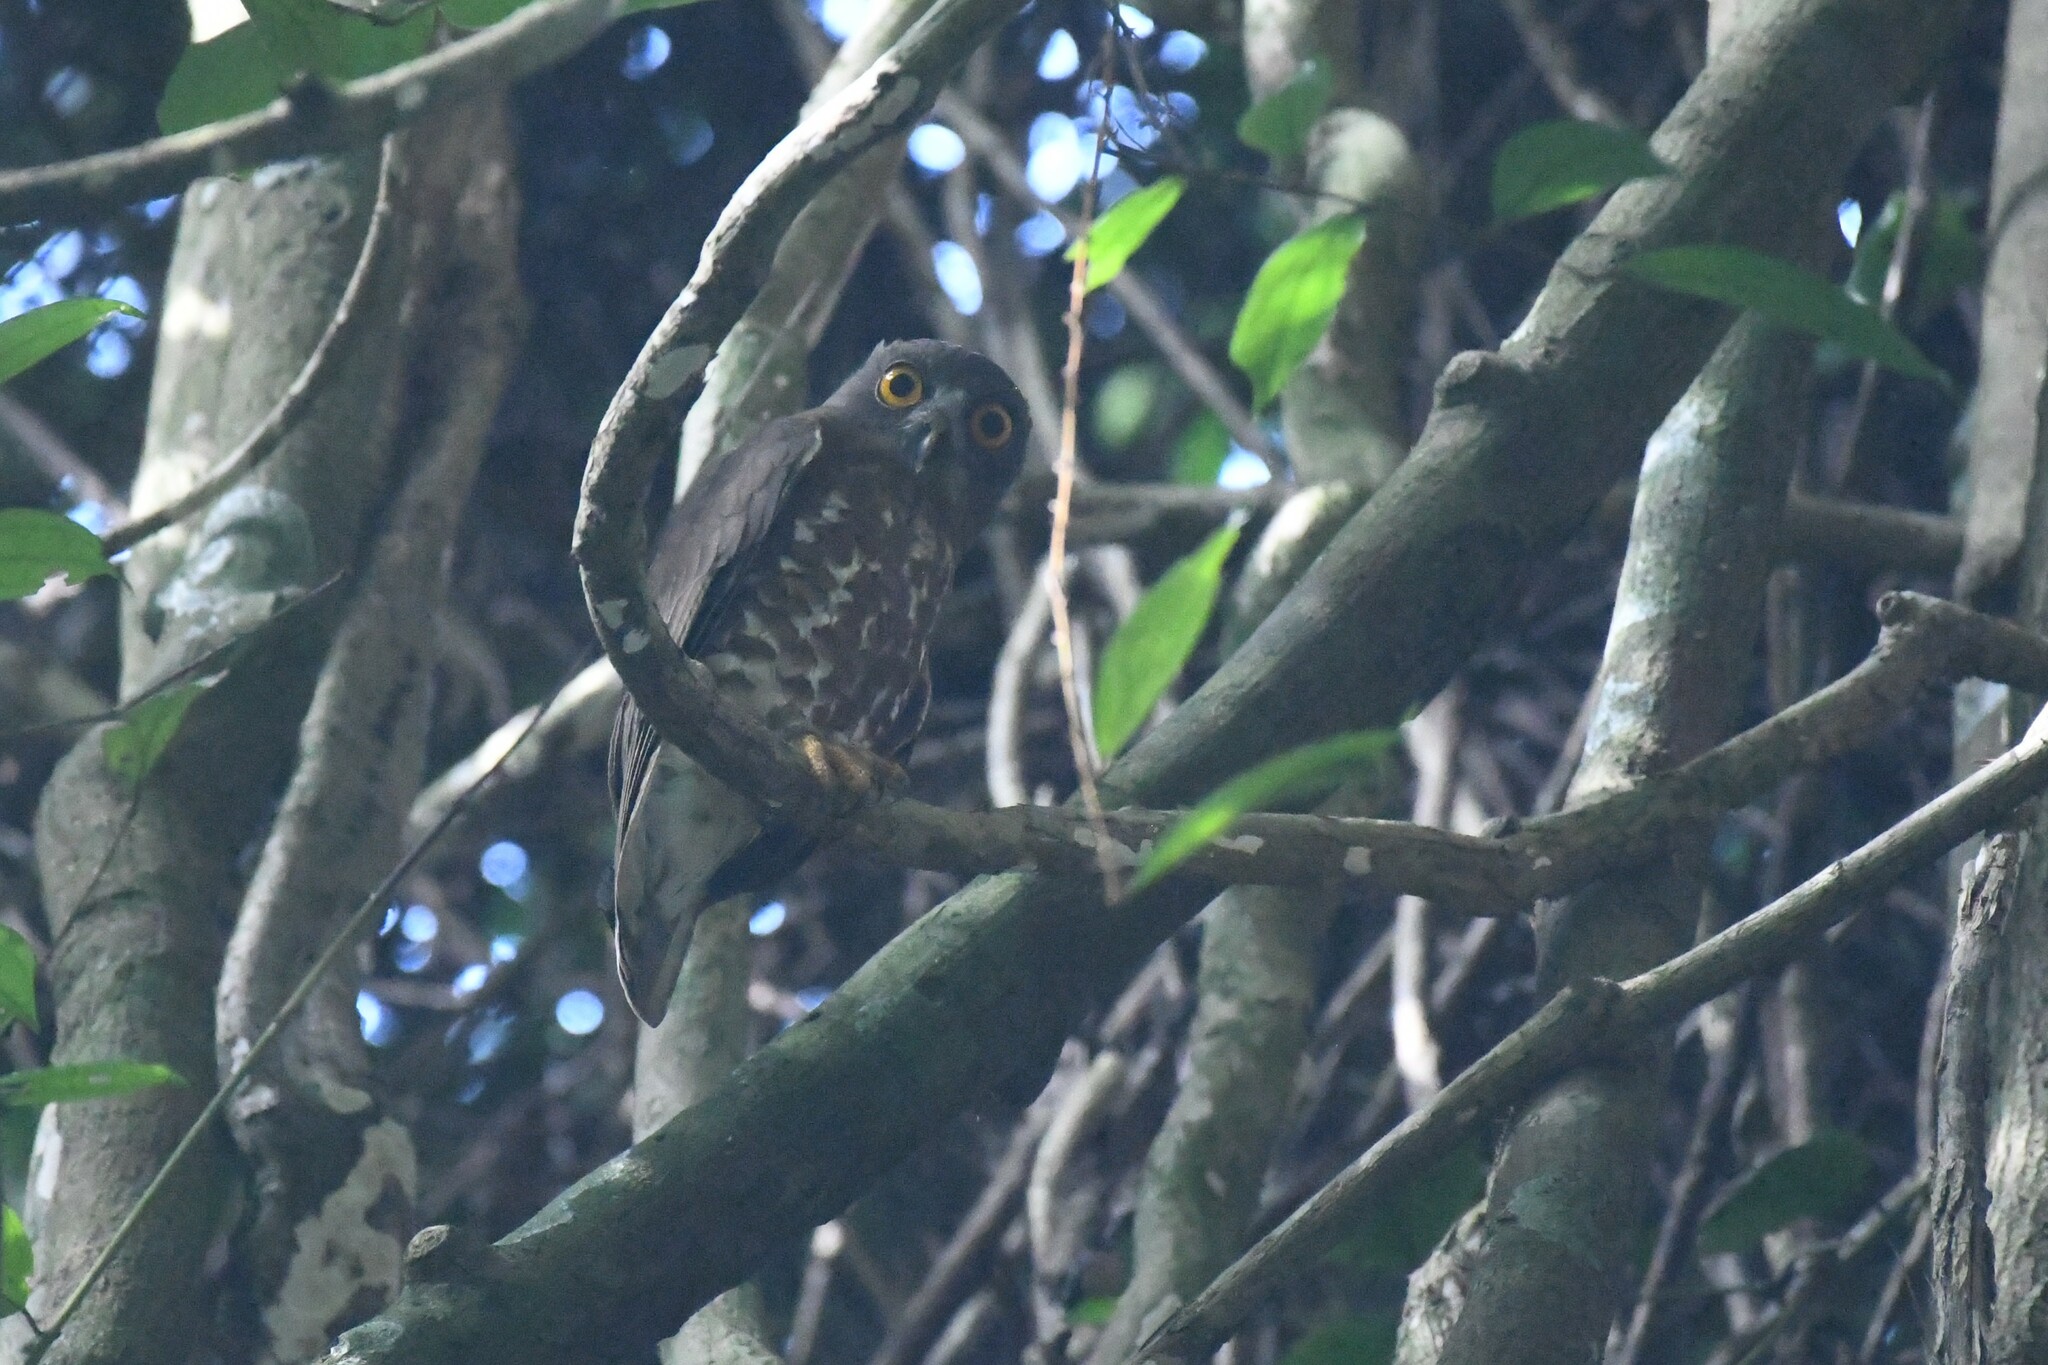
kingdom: Animalia
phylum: Chordata
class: Aves
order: Strigiformes
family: Strigidae
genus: Ninox
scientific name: Ninox scutulata
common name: Brown hawk-owl
